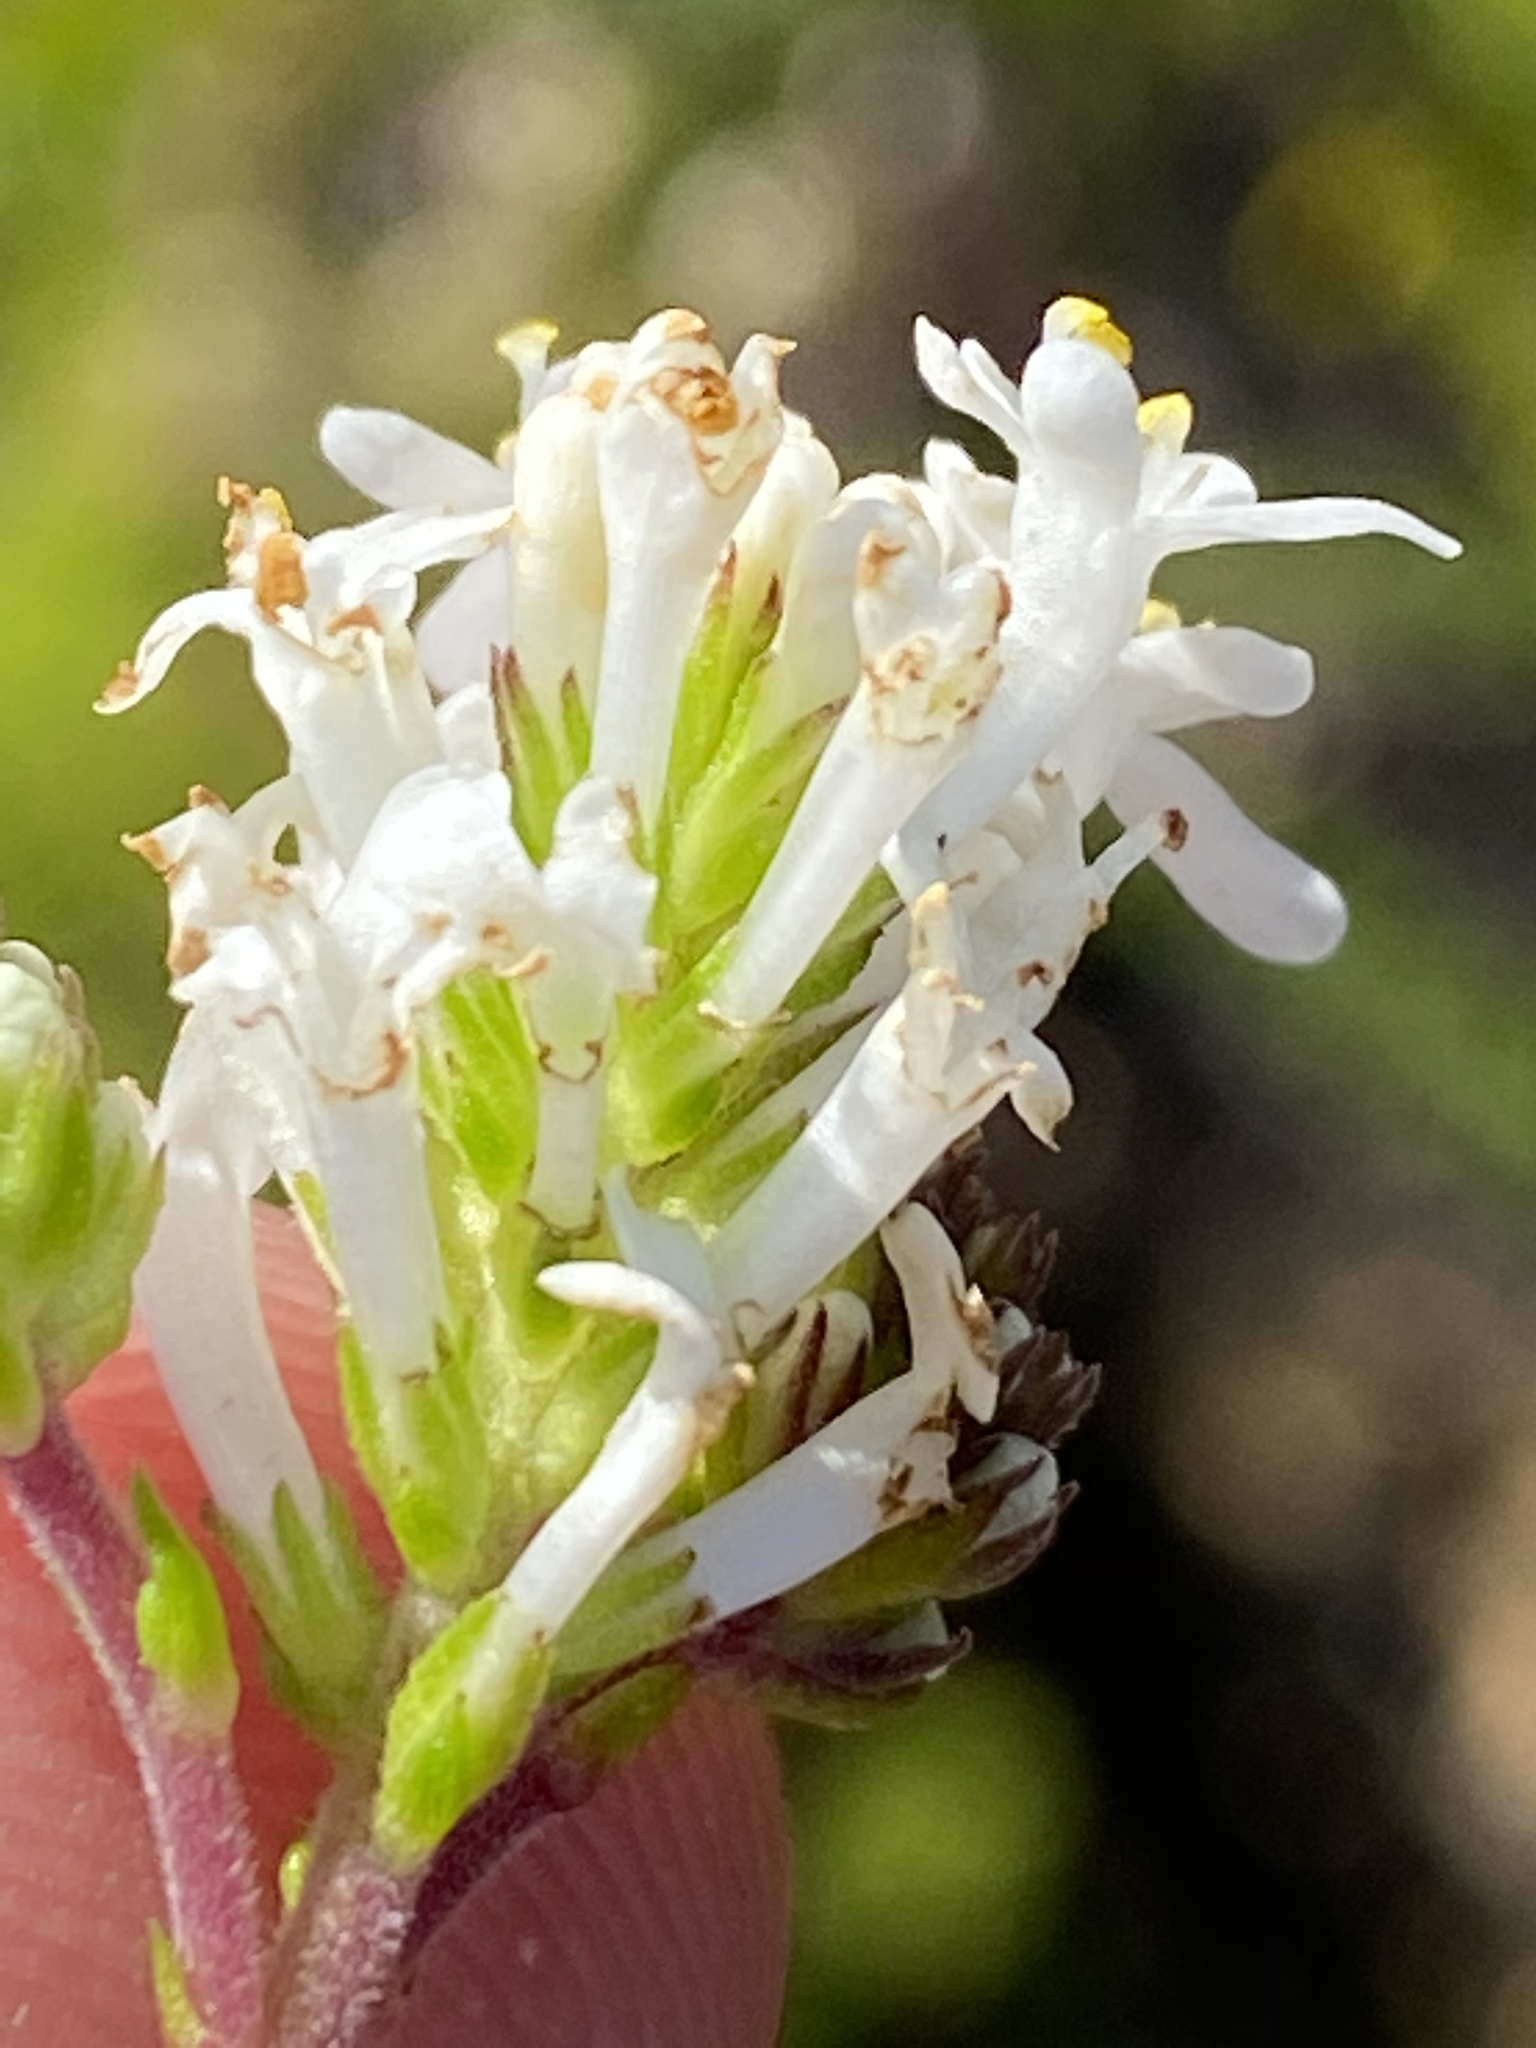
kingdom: Plantae
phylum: Tracheophyta
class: Magnoliopsida
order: Lamiales
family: Scrophulariaceae
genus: Selago
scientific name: Selago brevifolia
